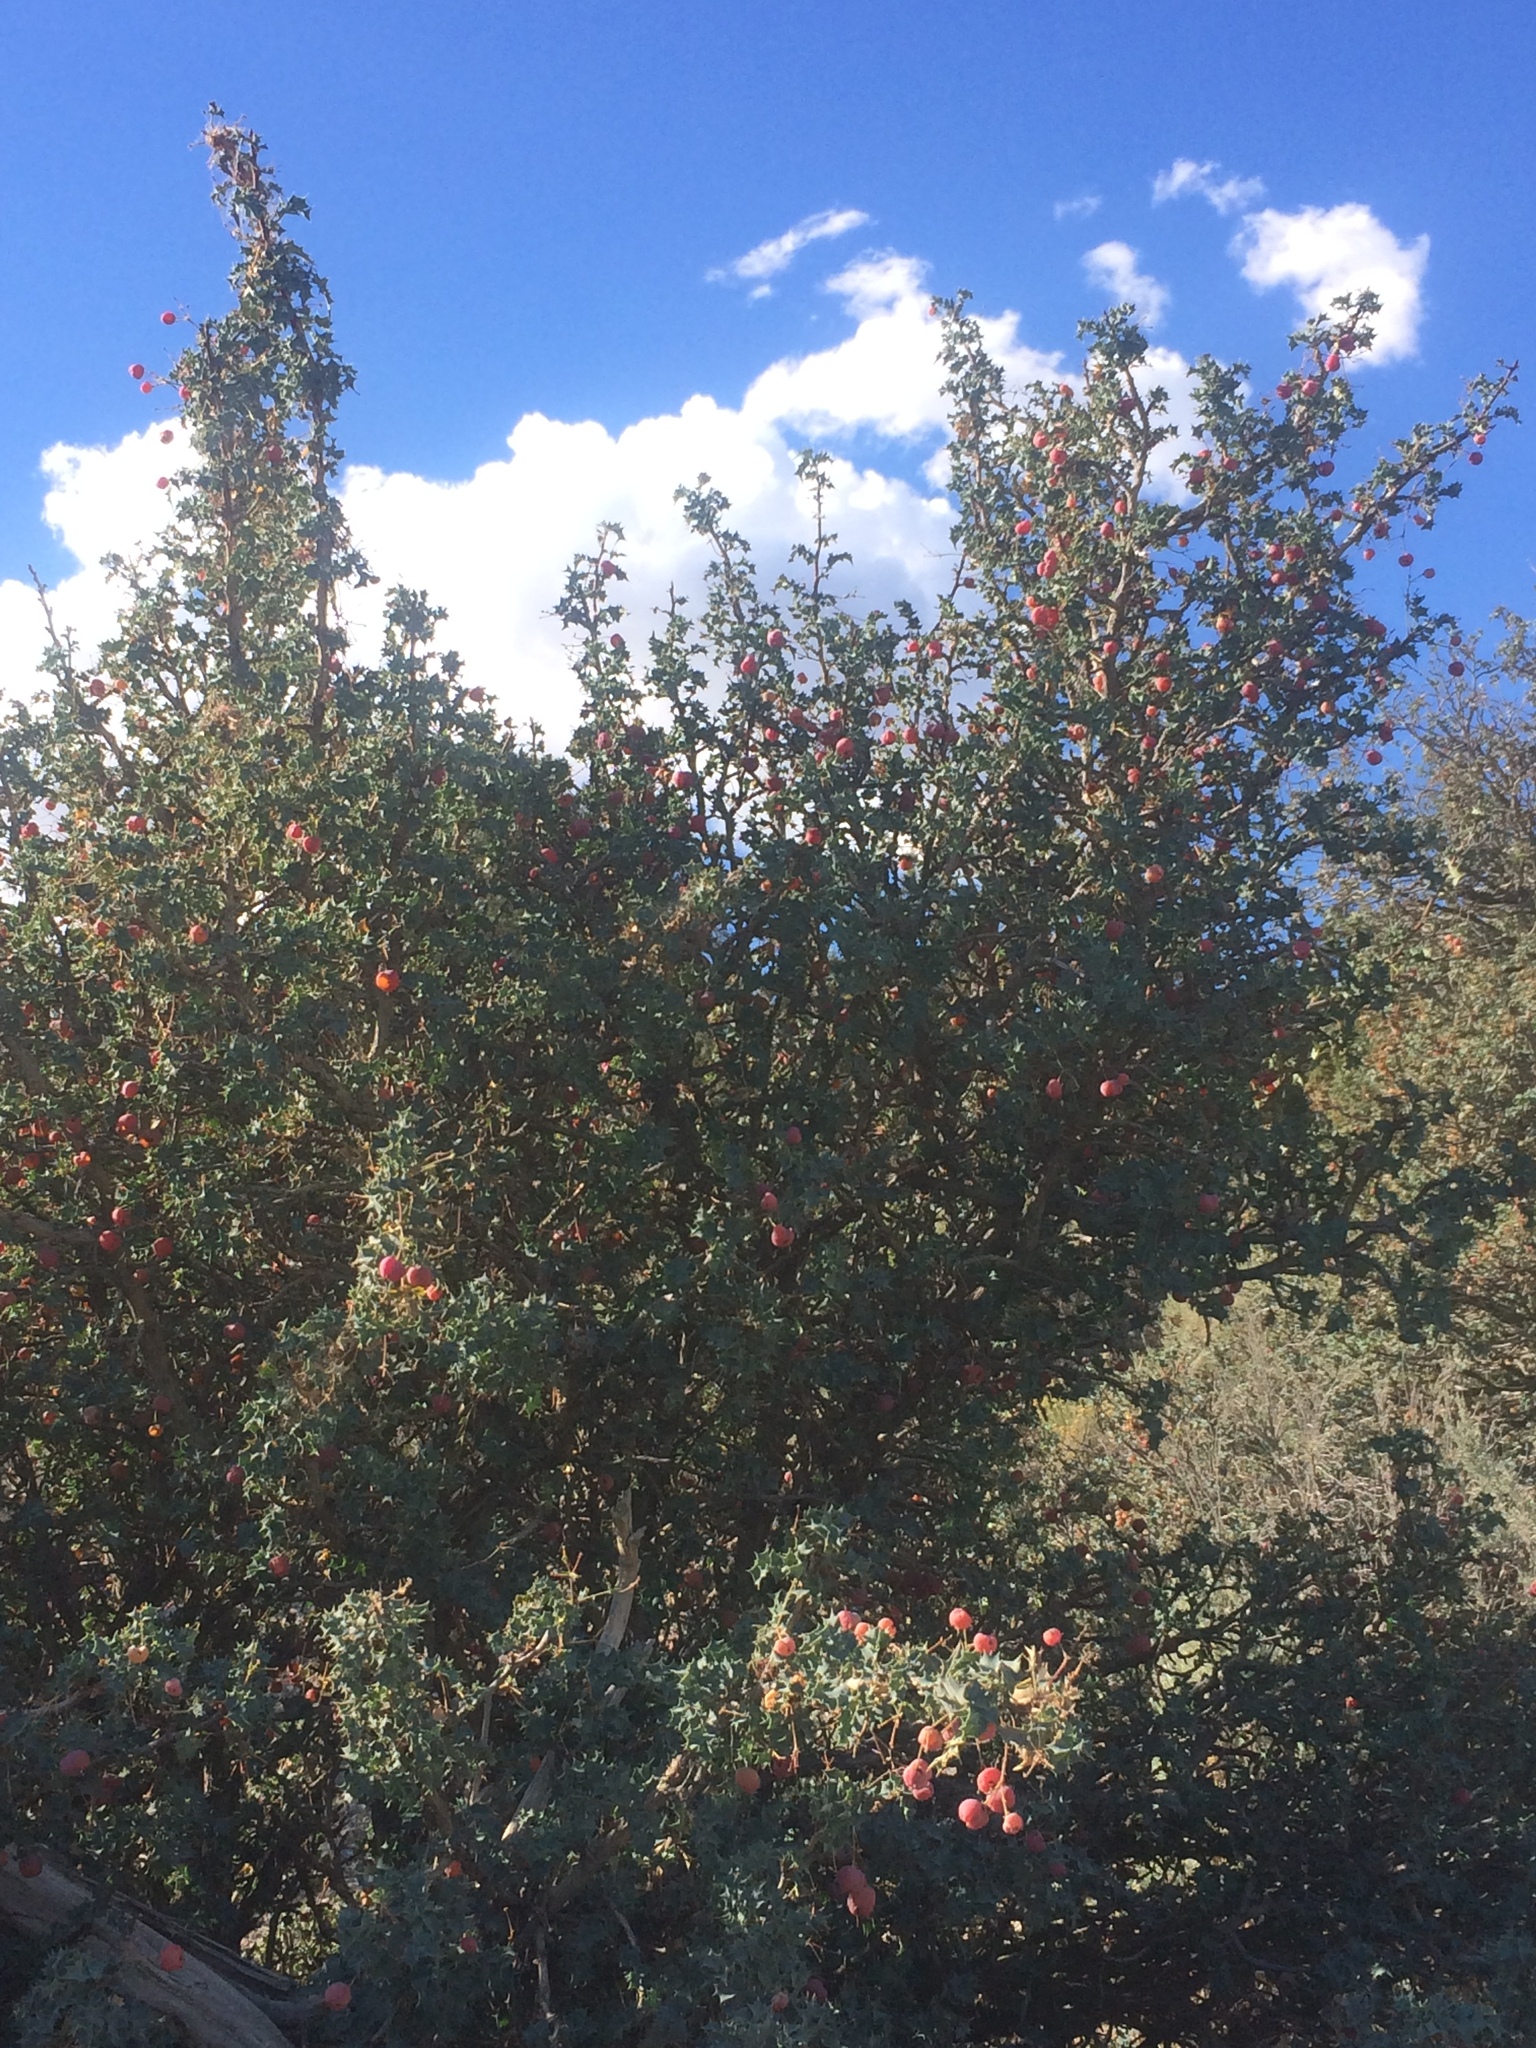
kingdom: Plantae
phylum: Tracheophyta
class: Magnoliopsida
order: Ranunculales
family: Berberidaceae
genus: Alloberberis
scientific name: Alloberberis fremontii
